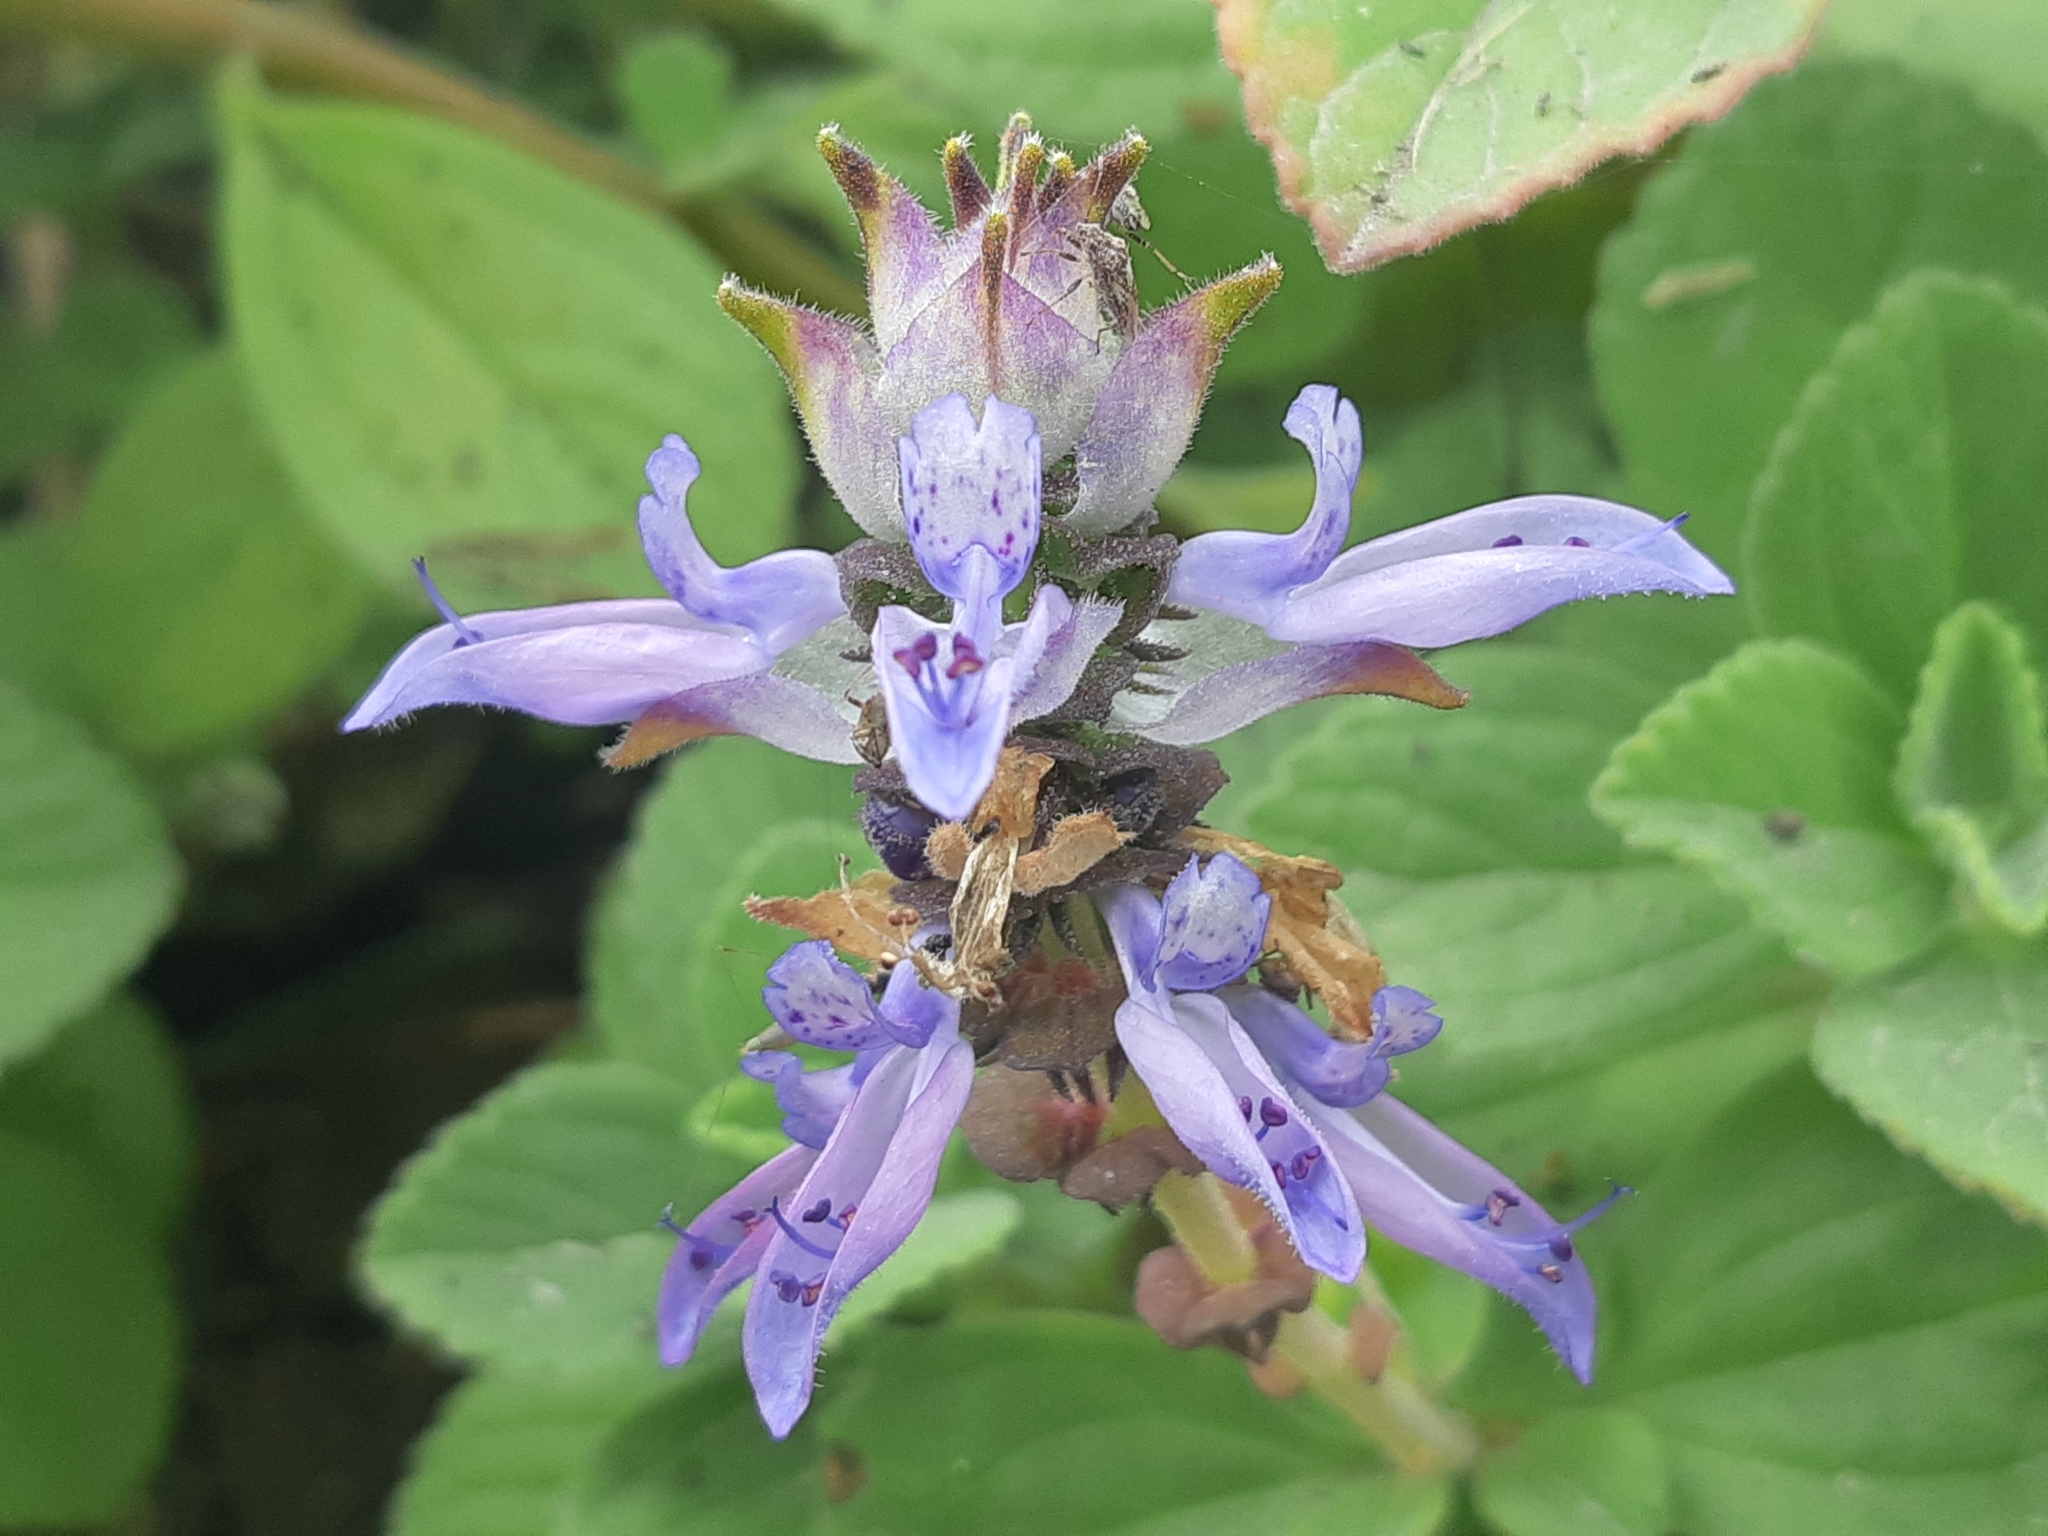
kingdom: Plantae
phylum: Tracheophyta
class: Magnoliopsida
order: Lamiales
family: Lamiaceae
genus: Coleus
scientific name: Coleus barbatus
